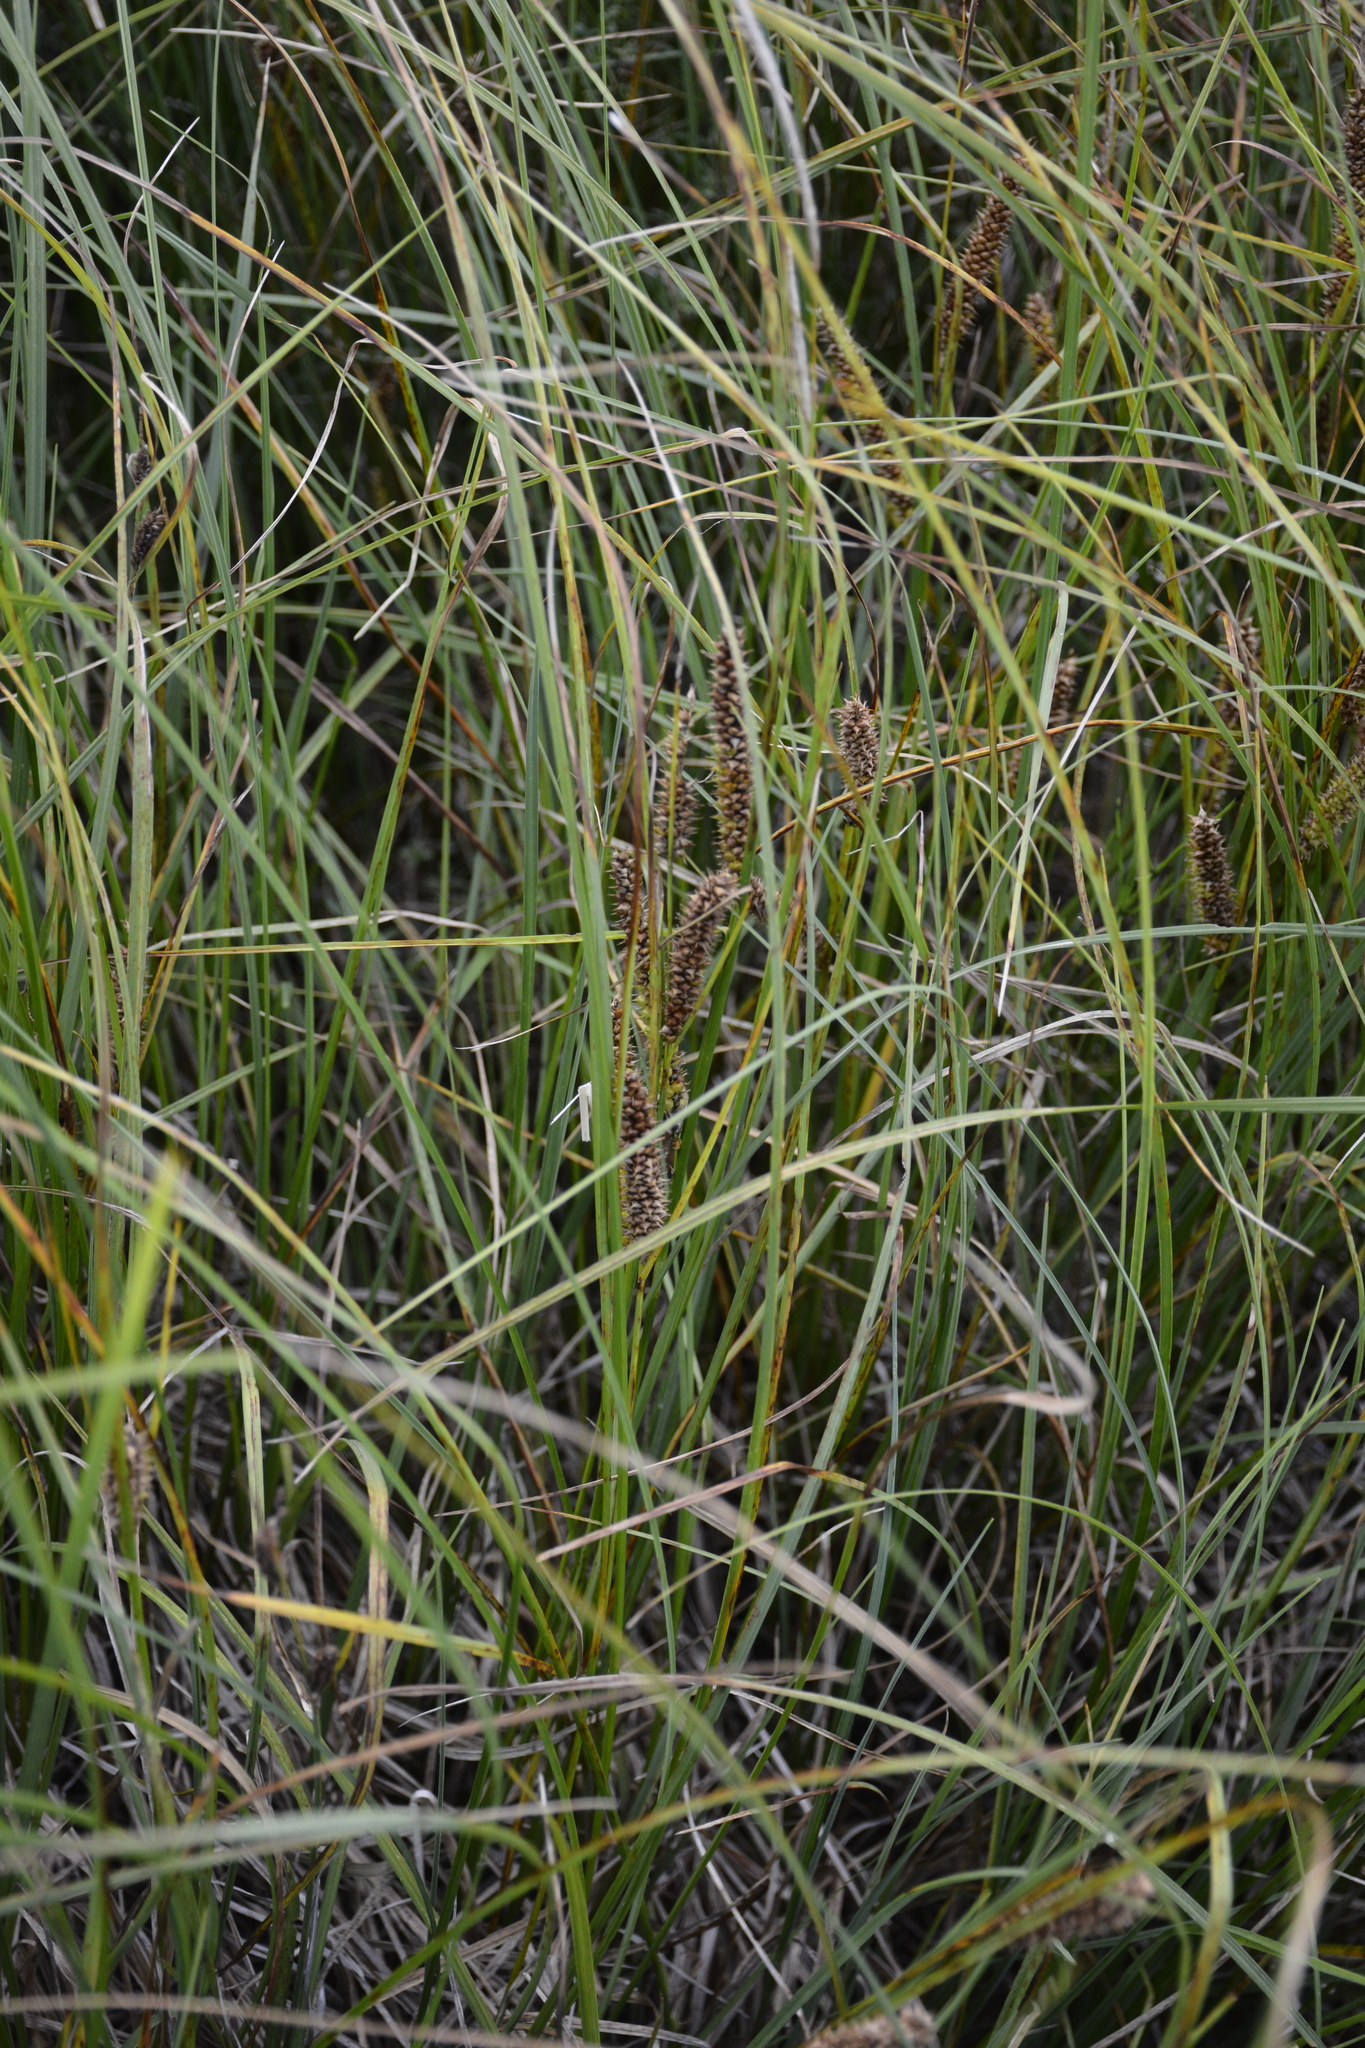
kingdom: Plantae
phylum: Tracheophyta
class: Liliopsida
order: Poales
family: Cyperaceae
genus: Carex
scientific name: Carex rostrata
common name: Bottle sedge
